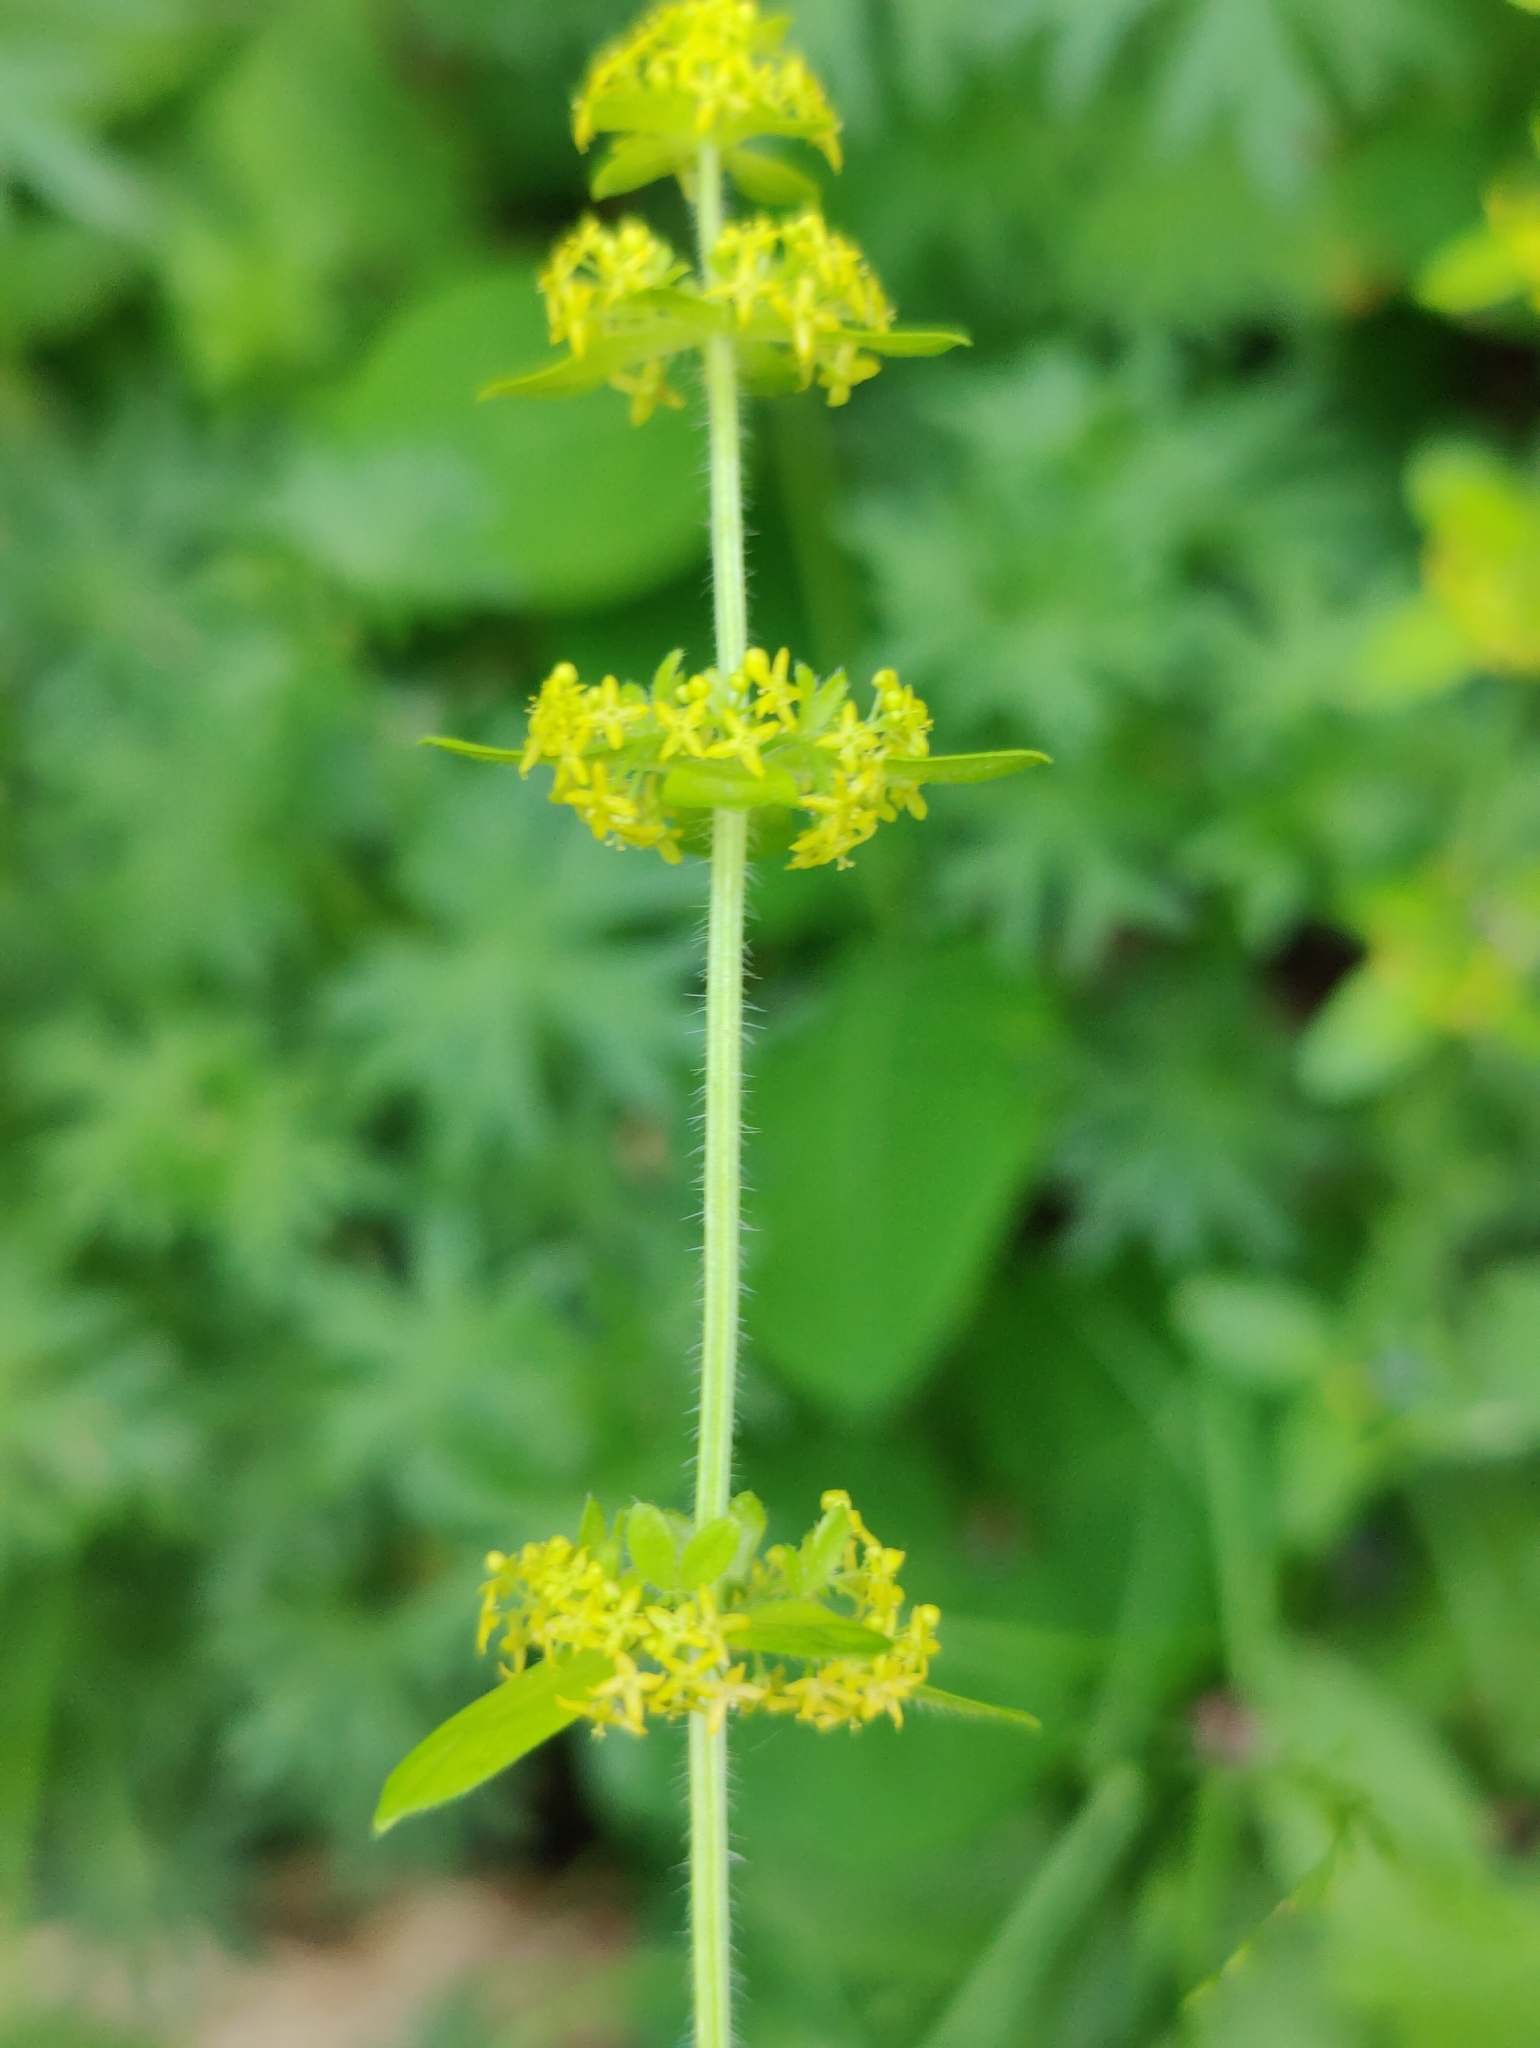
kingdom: Plantae
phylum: Tracheophyta
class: Magnoliopsida
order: Gentianales
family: Rubiaceae
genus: Cruciata
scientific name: Cruciata laevipes
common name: Crosswort
